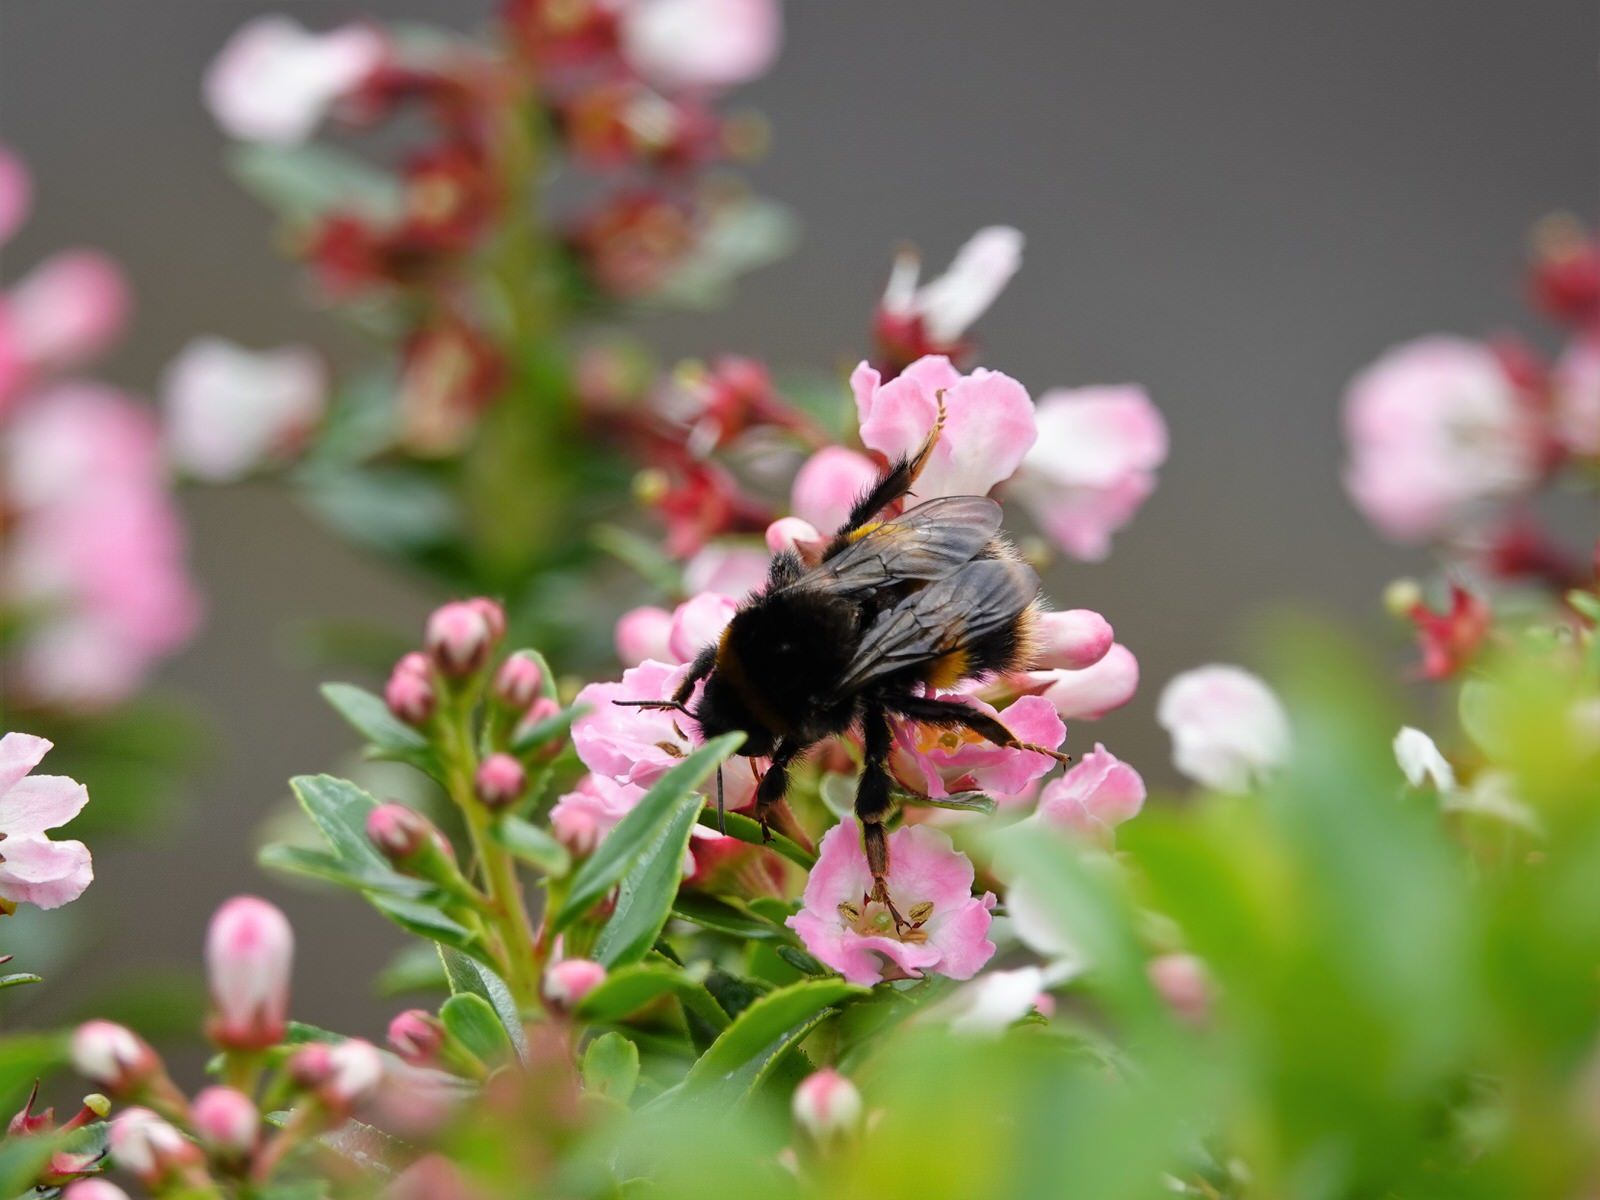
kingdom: Animalia
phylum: Arthropoda
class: Insecta
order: Hymenoptera
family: Apidae
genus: Bombus
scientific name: Bombus terrestris
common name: Buff-tailed bumblebee
